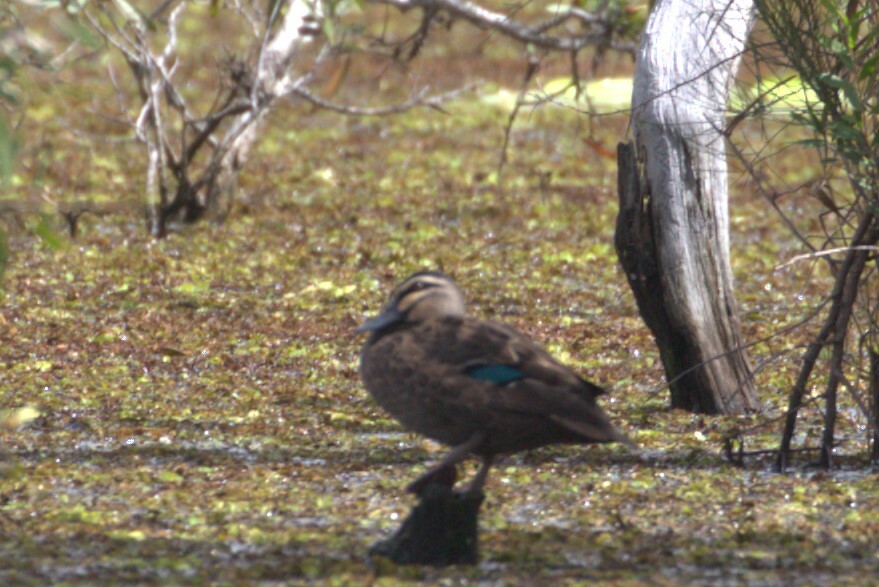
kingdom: Animalia
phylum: Chordata
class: Aves
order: Anseriformes
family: Anatidae
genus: Anas
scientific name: Anas superciliosa
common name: Pacific black duck
